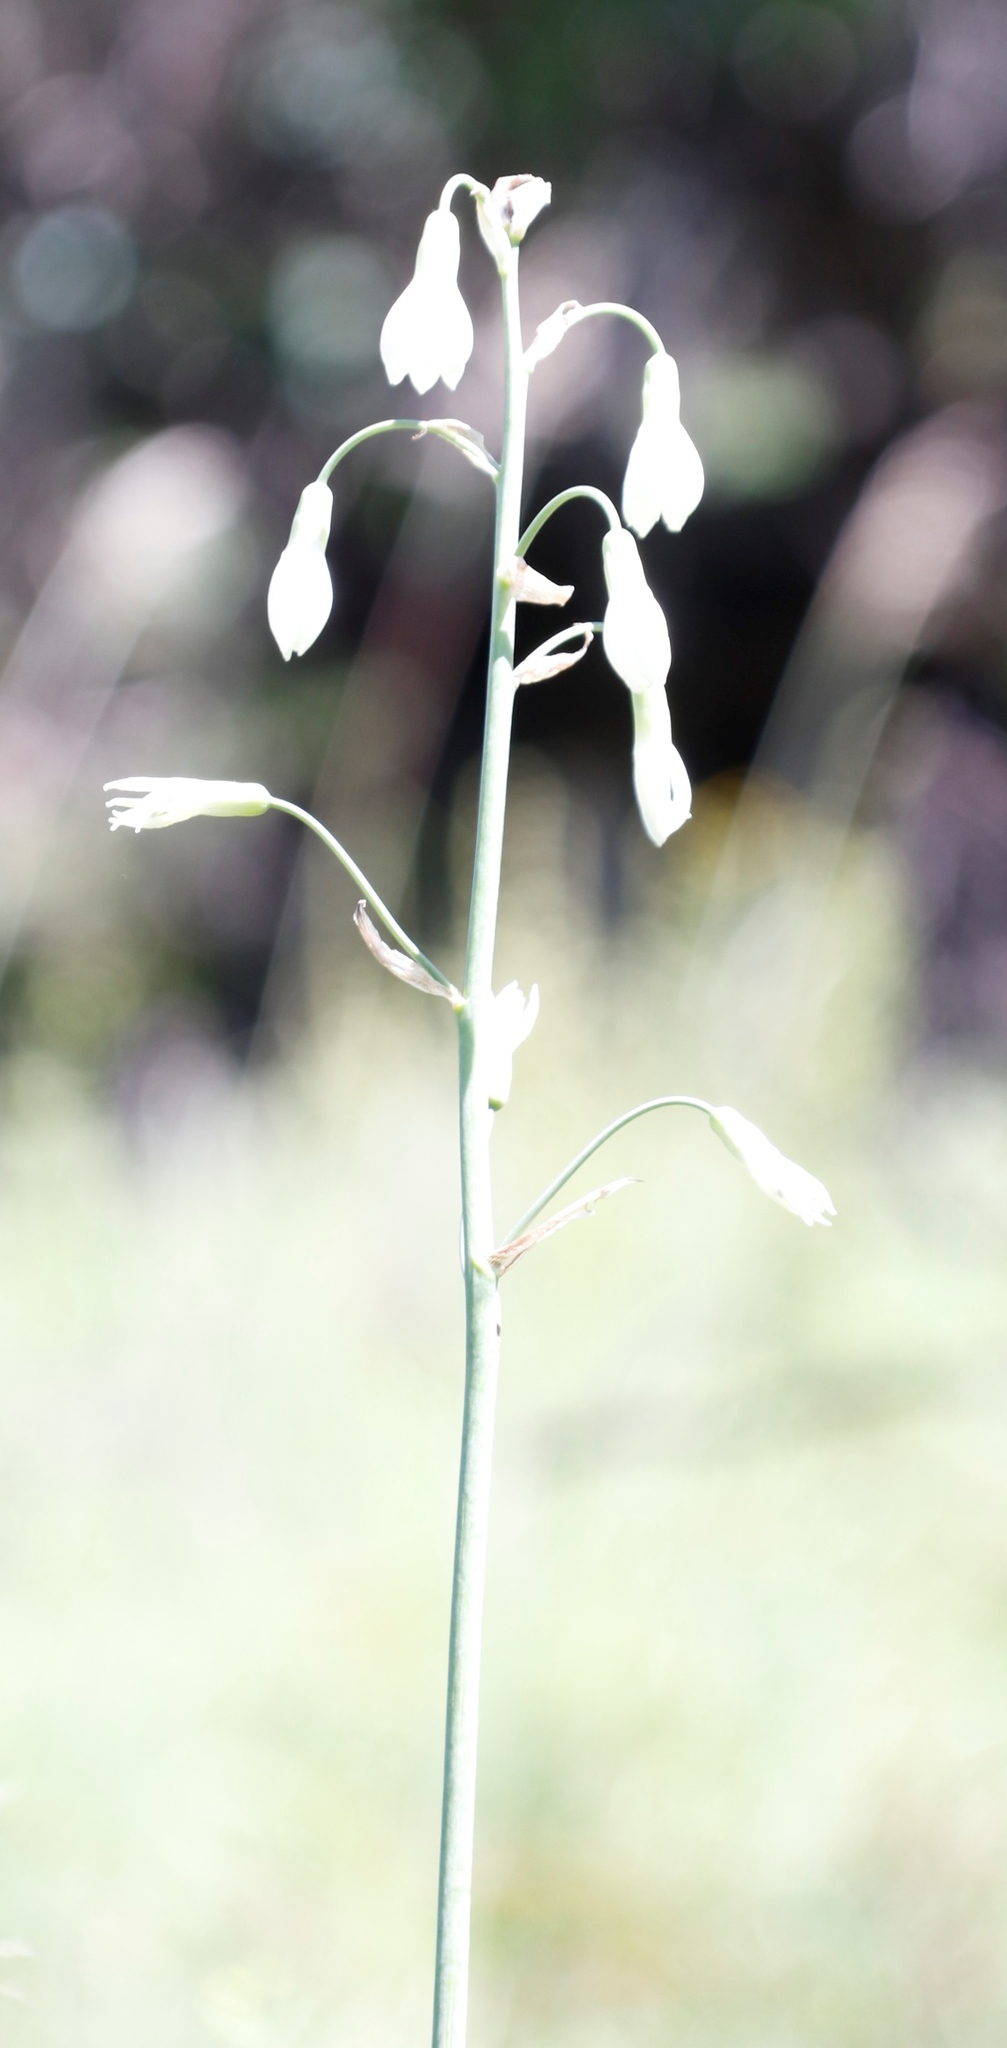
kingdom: Plantae
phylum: Tracheophyta
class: Liliopsida
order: Asparagales
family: Asparagaceae
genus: Ornithogalum
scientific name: Ornithogalum candicans
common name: Summer-hyacinth
